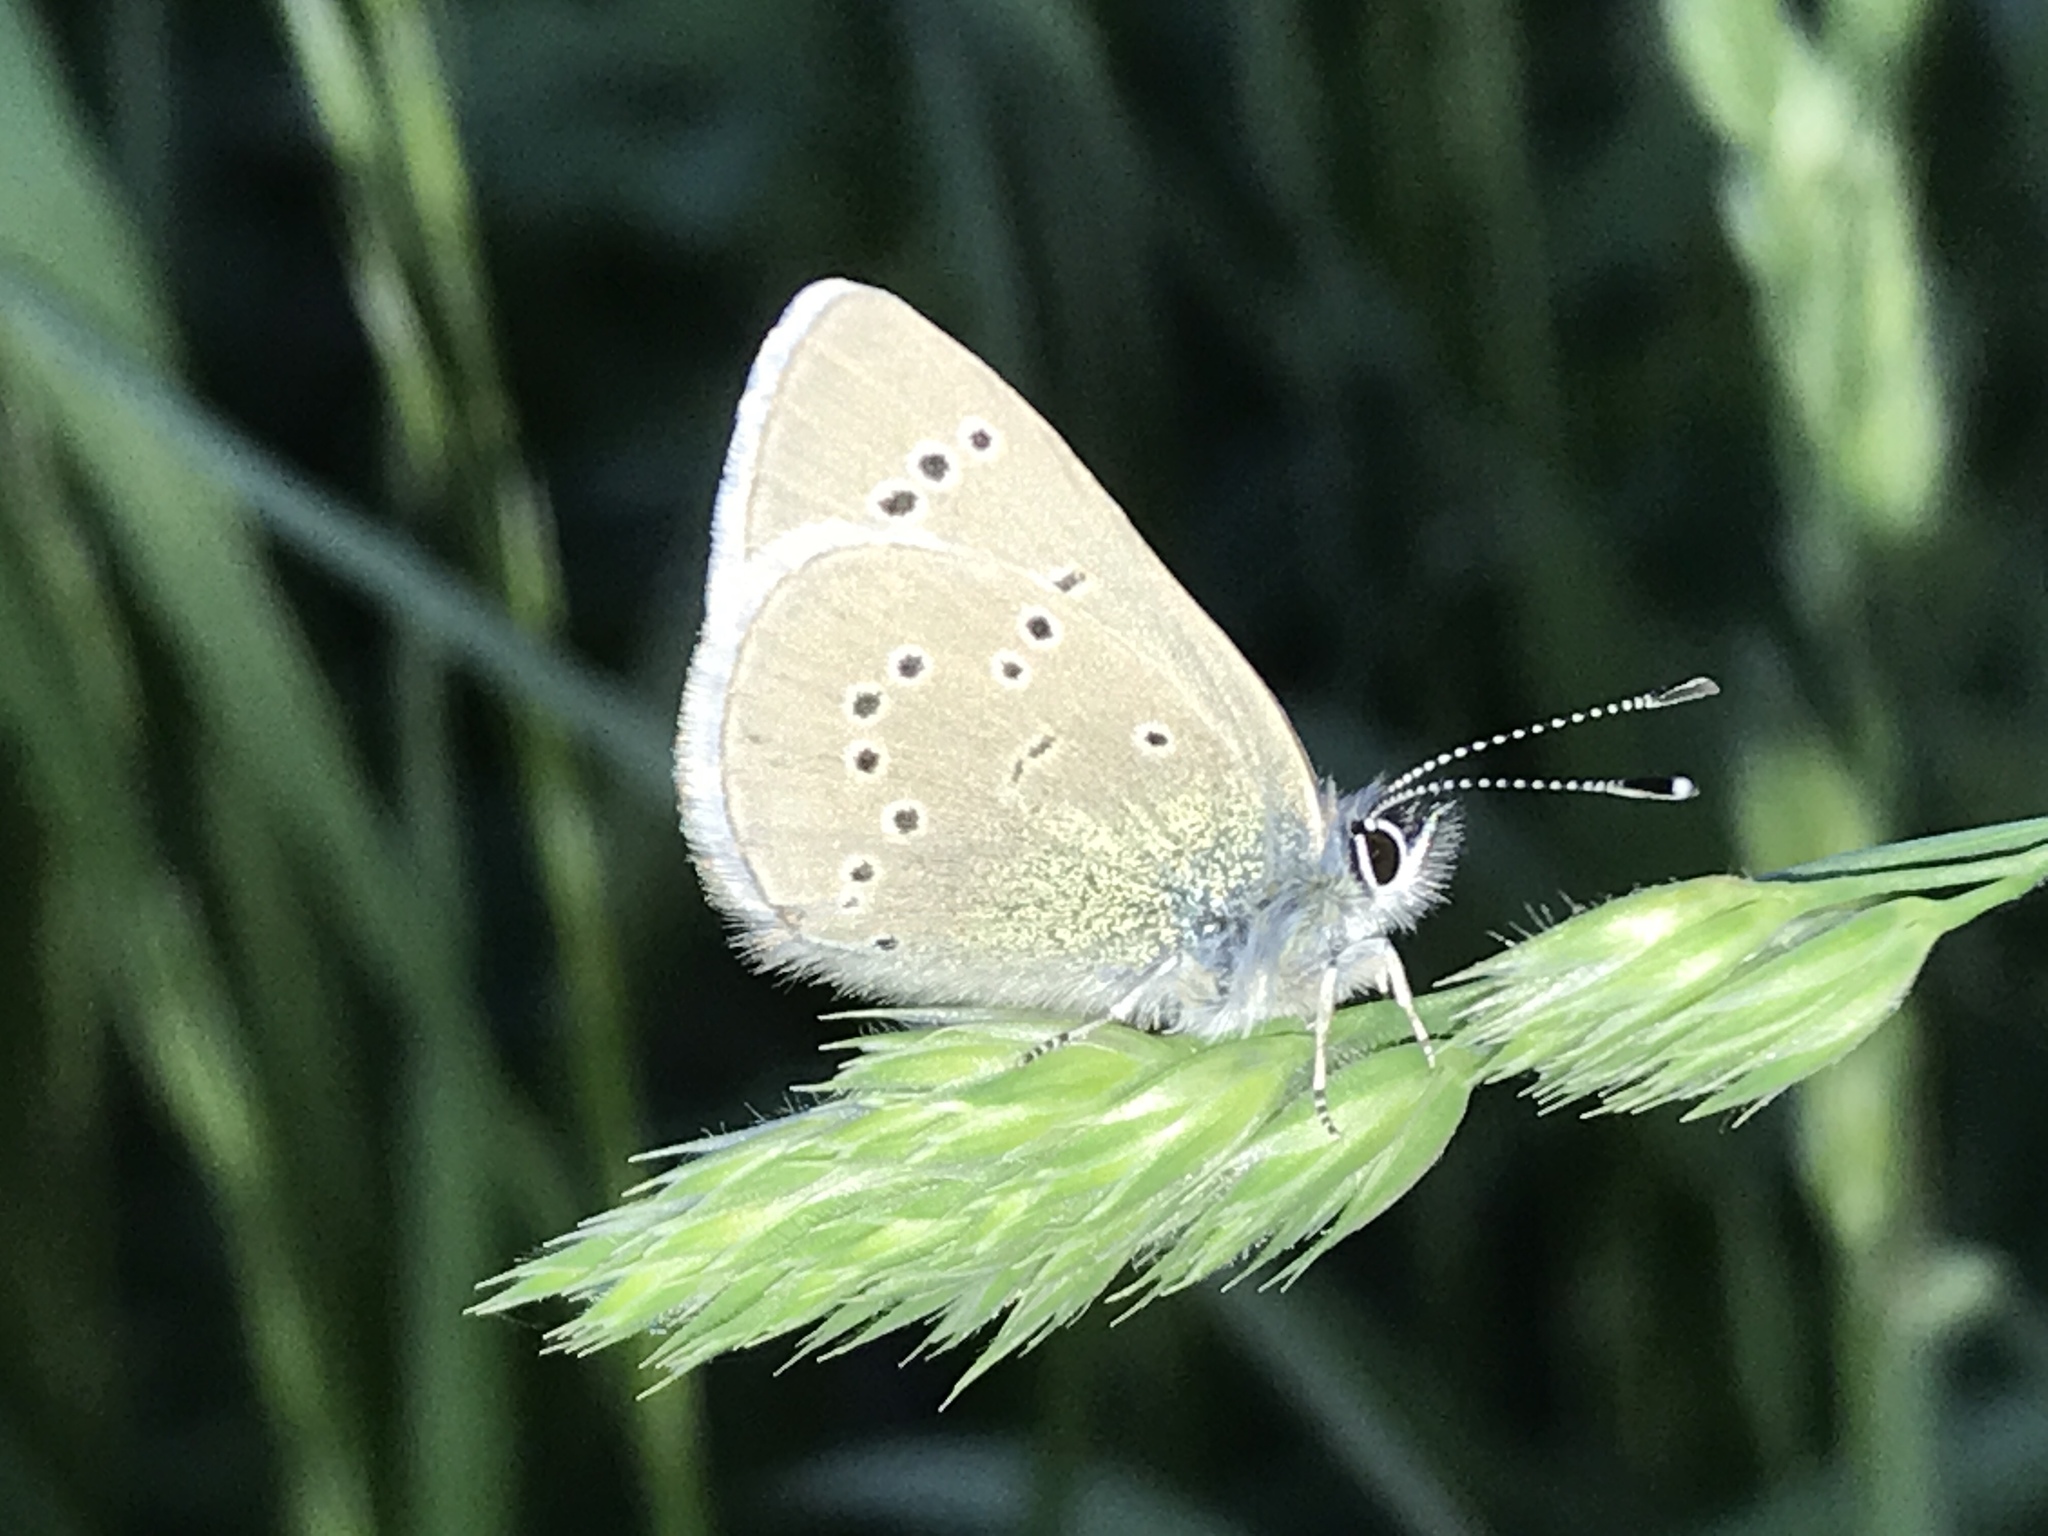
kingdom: Animalia
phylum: Arthropoda
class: Insecta
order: Lepidoptera
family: Lycaenidae
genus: Glaucopsyche
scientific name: Glaucopsyche lygdamus
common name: Silvery blue
